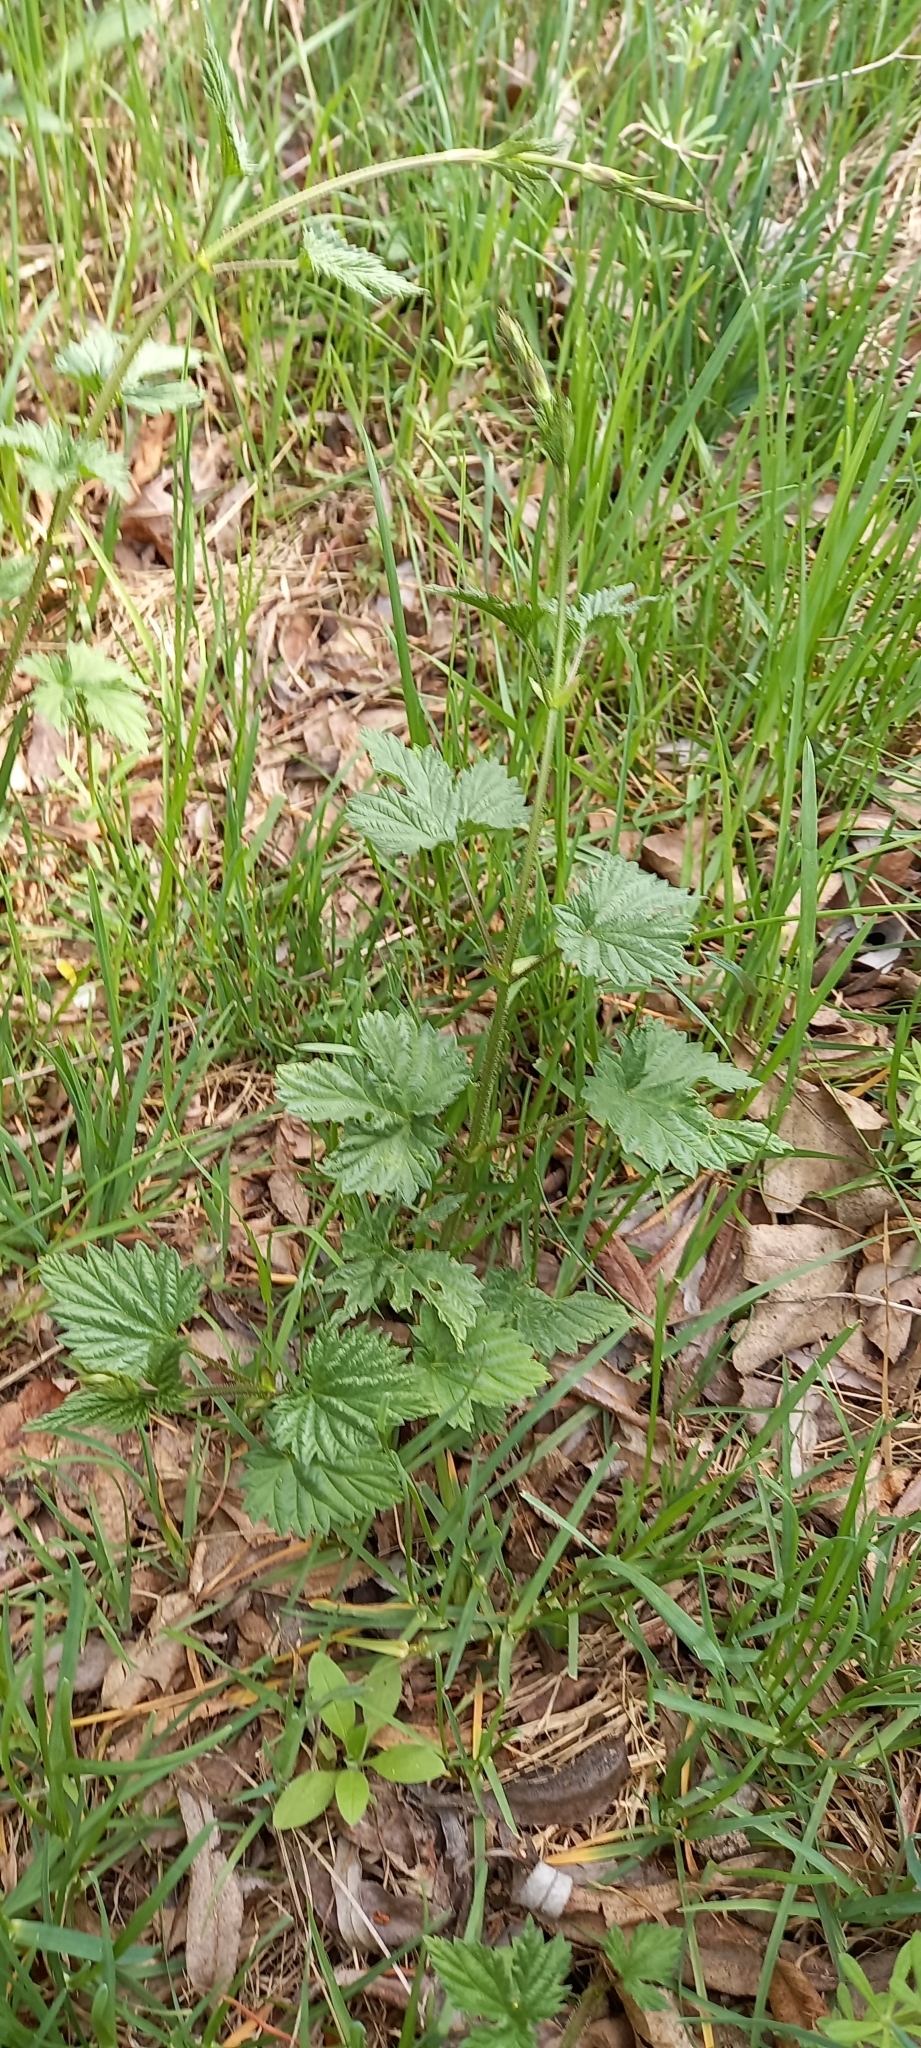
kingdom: Plantae
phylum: Tracheophyta
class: Magnoliopsida
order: Rosales
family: Cannabaceae
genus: Humulus
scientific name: Humulus lupulus
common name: Hop
